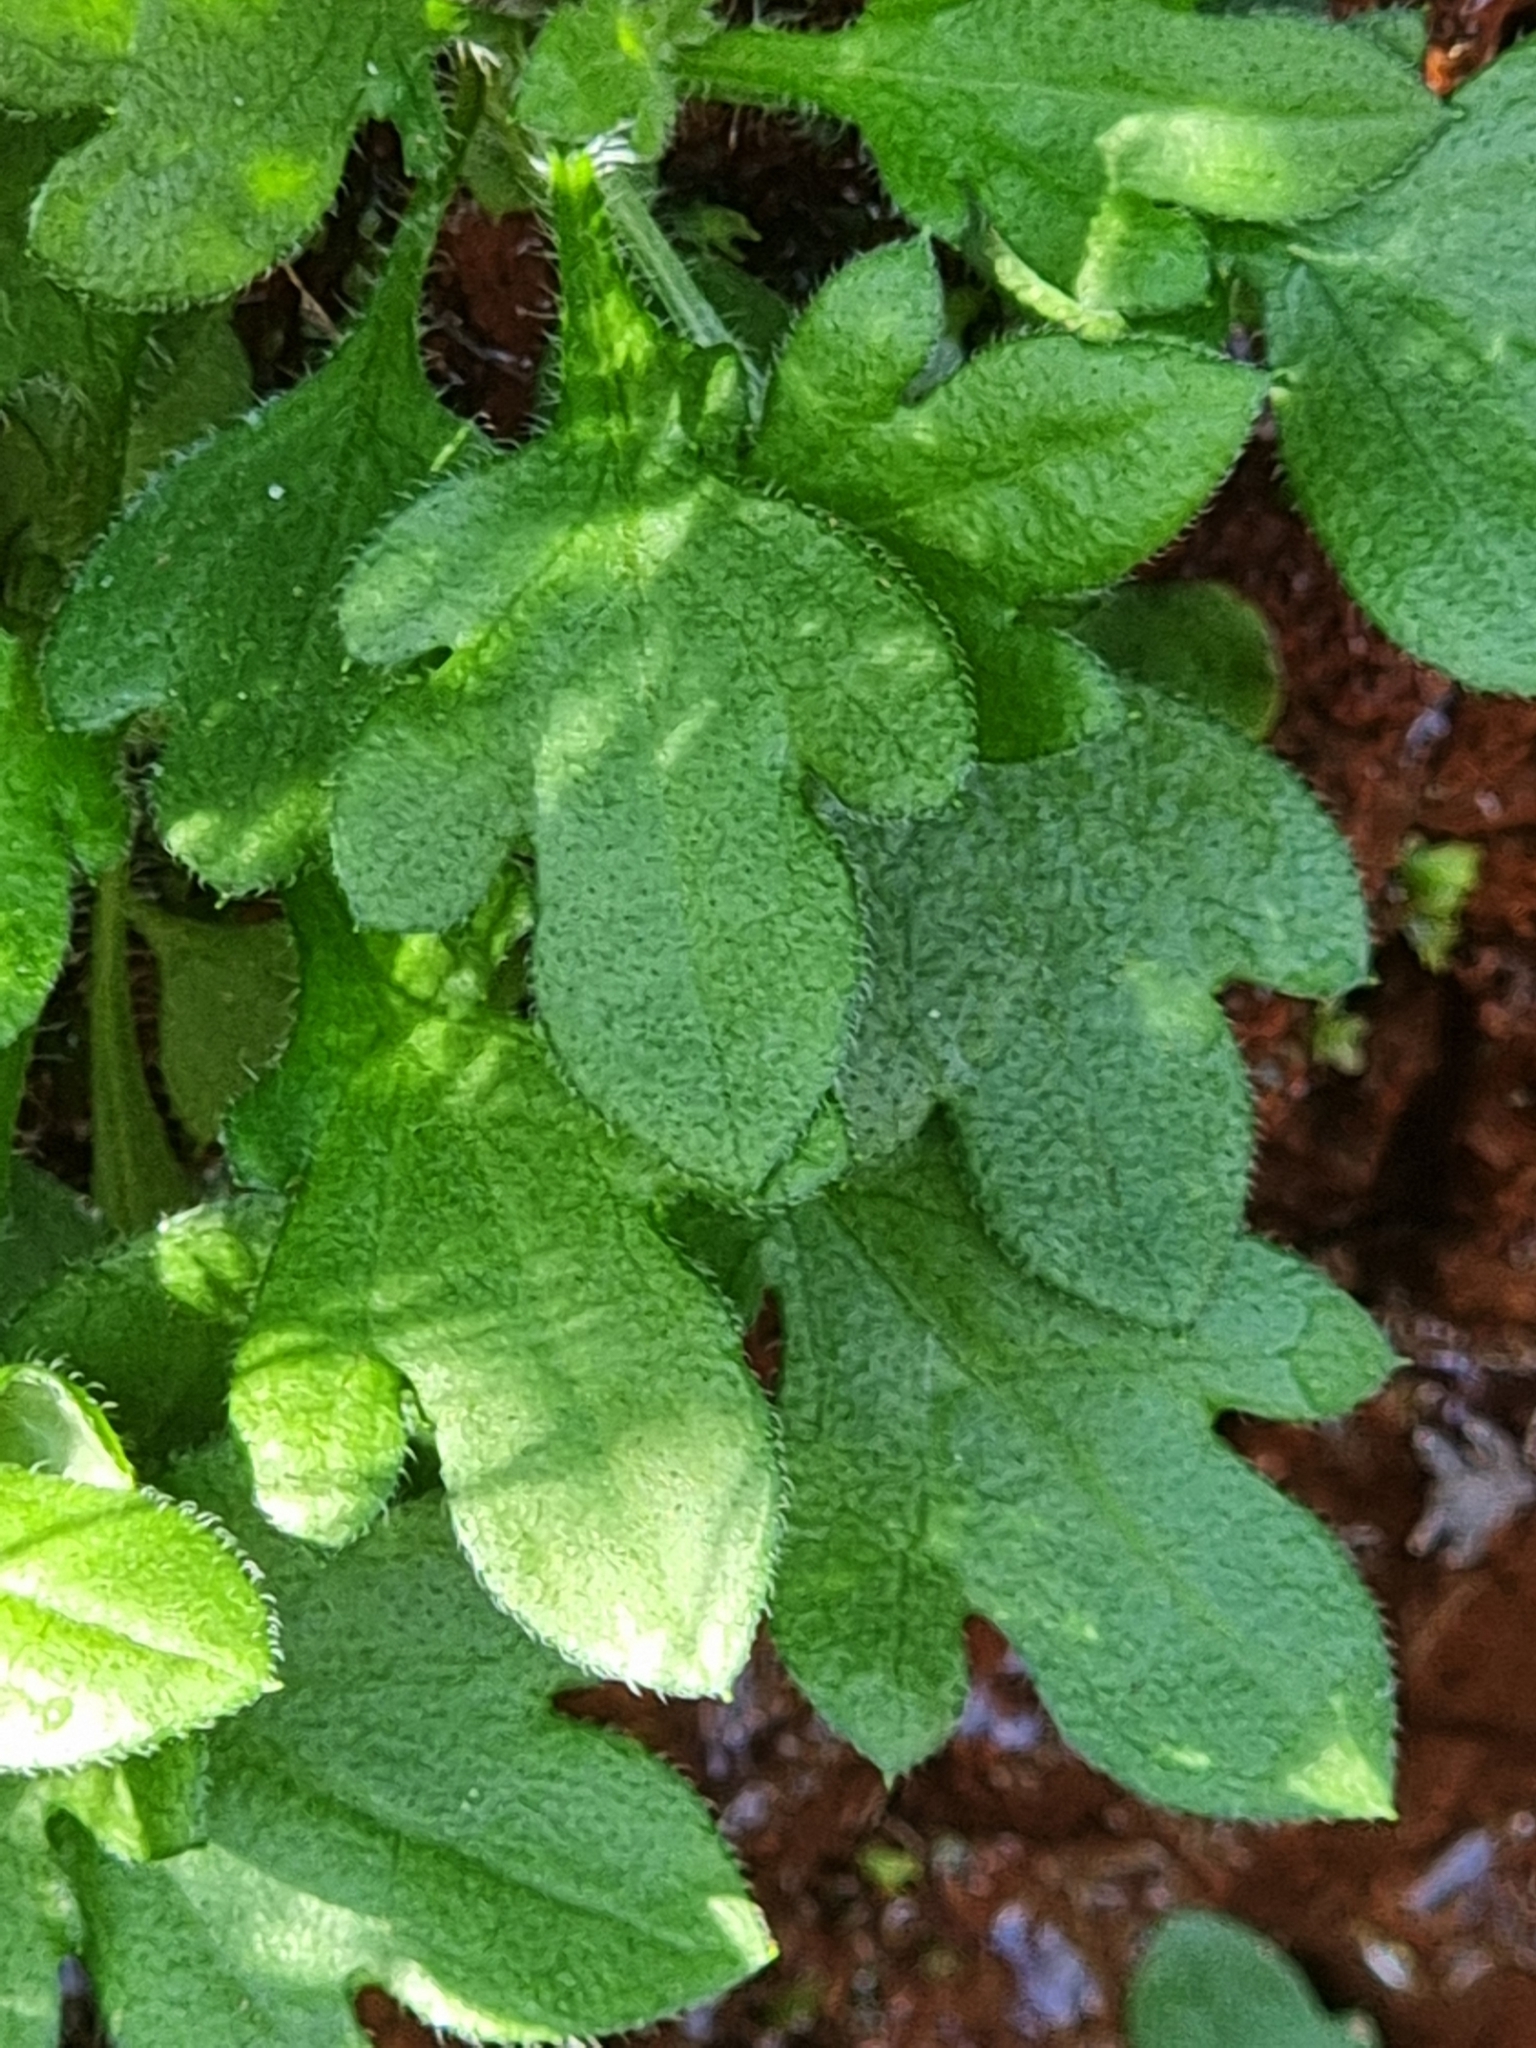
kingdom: Plantae
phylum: Tracheophyta
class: Magnoliopsida
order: Asterales
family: Asteraceae
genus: Erigeron
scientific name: Erigeron karvinskianus
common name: Mexican fleabane
